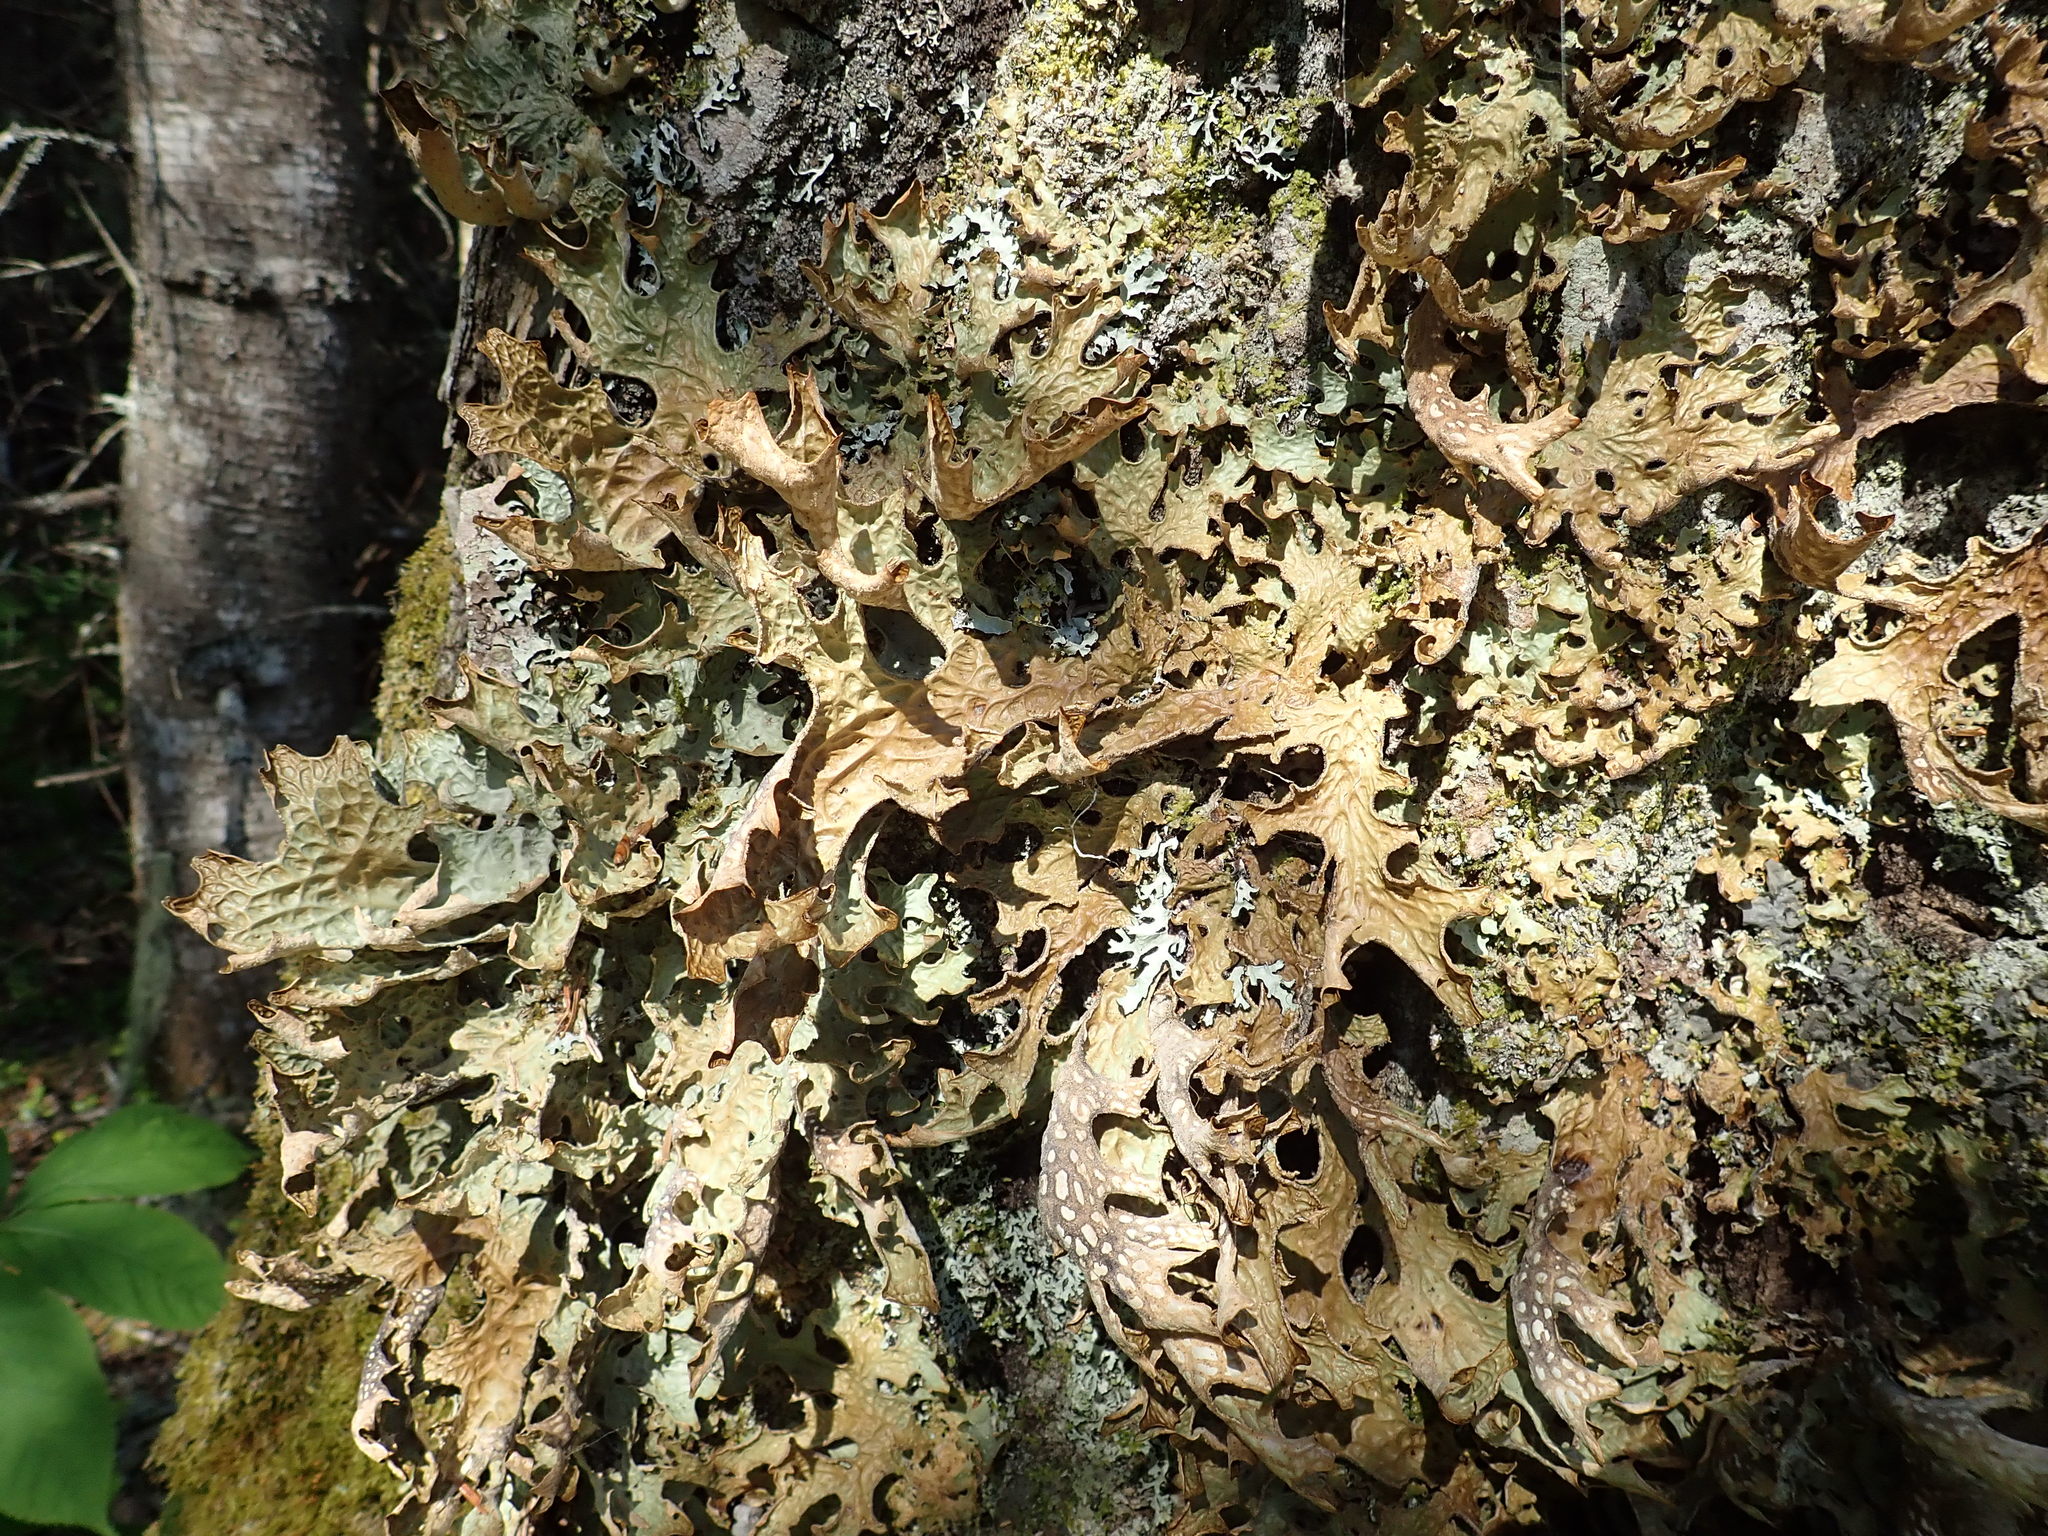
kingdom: Fungi
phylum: Ascomycota
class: Lecanoromycetes
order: Peltigerales
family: Lobariaceae
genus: Lobaria
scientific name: Lobaria pulmonaria
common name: Lungwort
